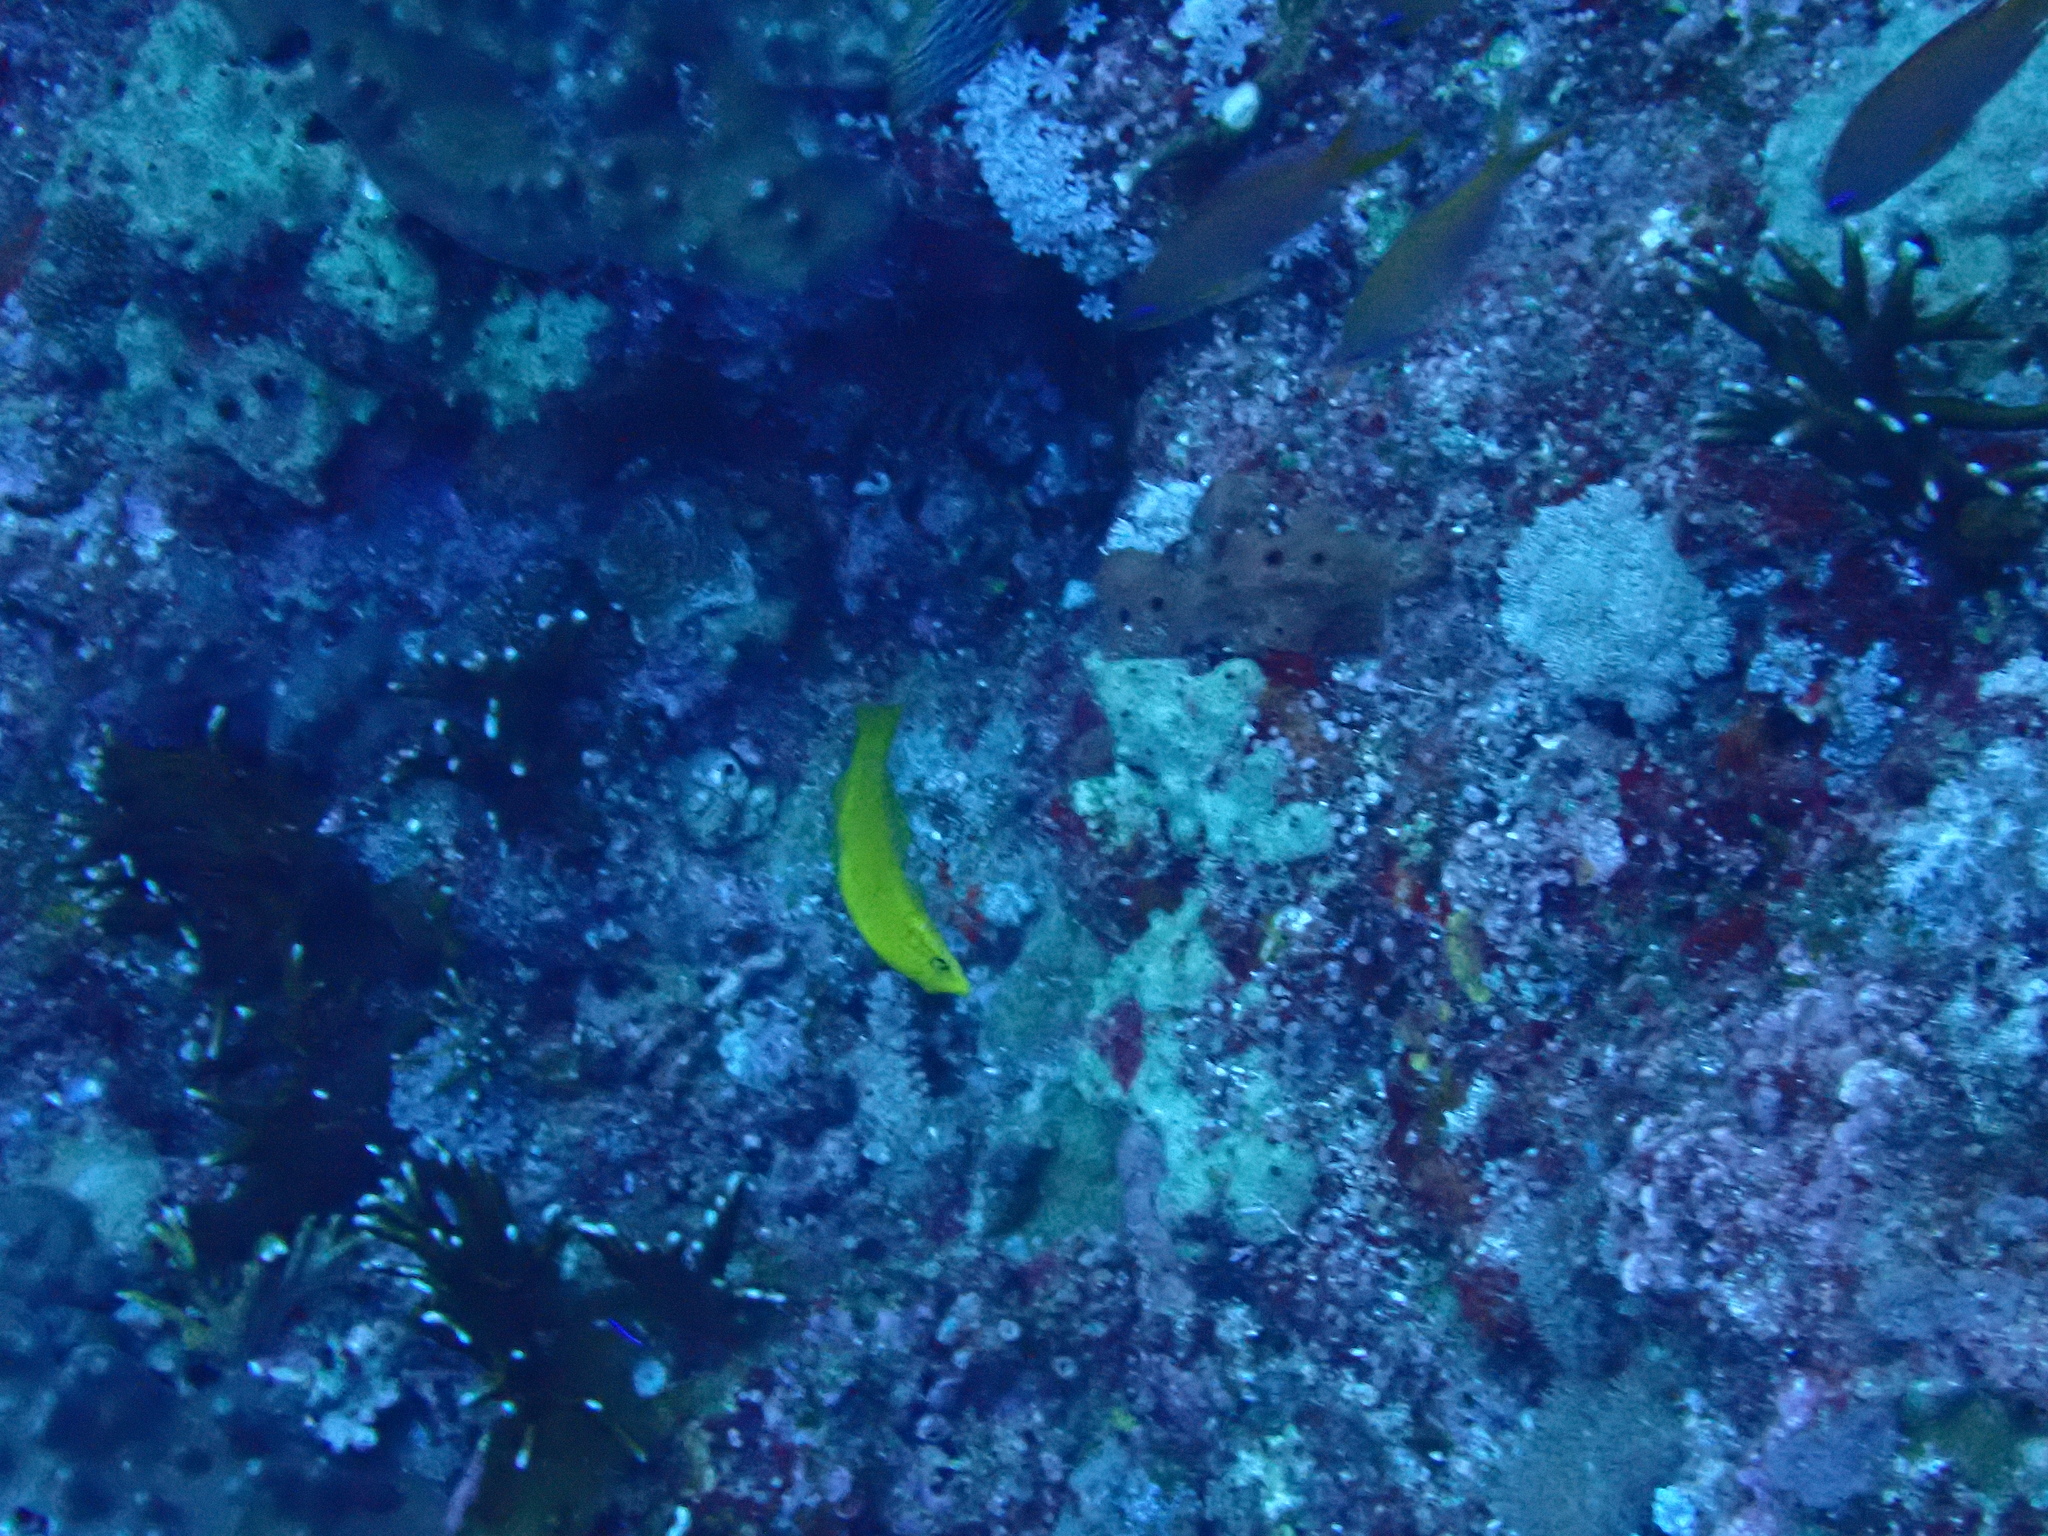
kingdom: Animalia
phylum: Chordata
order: Perciformes
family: Labridae
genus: Halichoeres
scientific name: Halichoeres chrysus
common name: Canary wrasse
